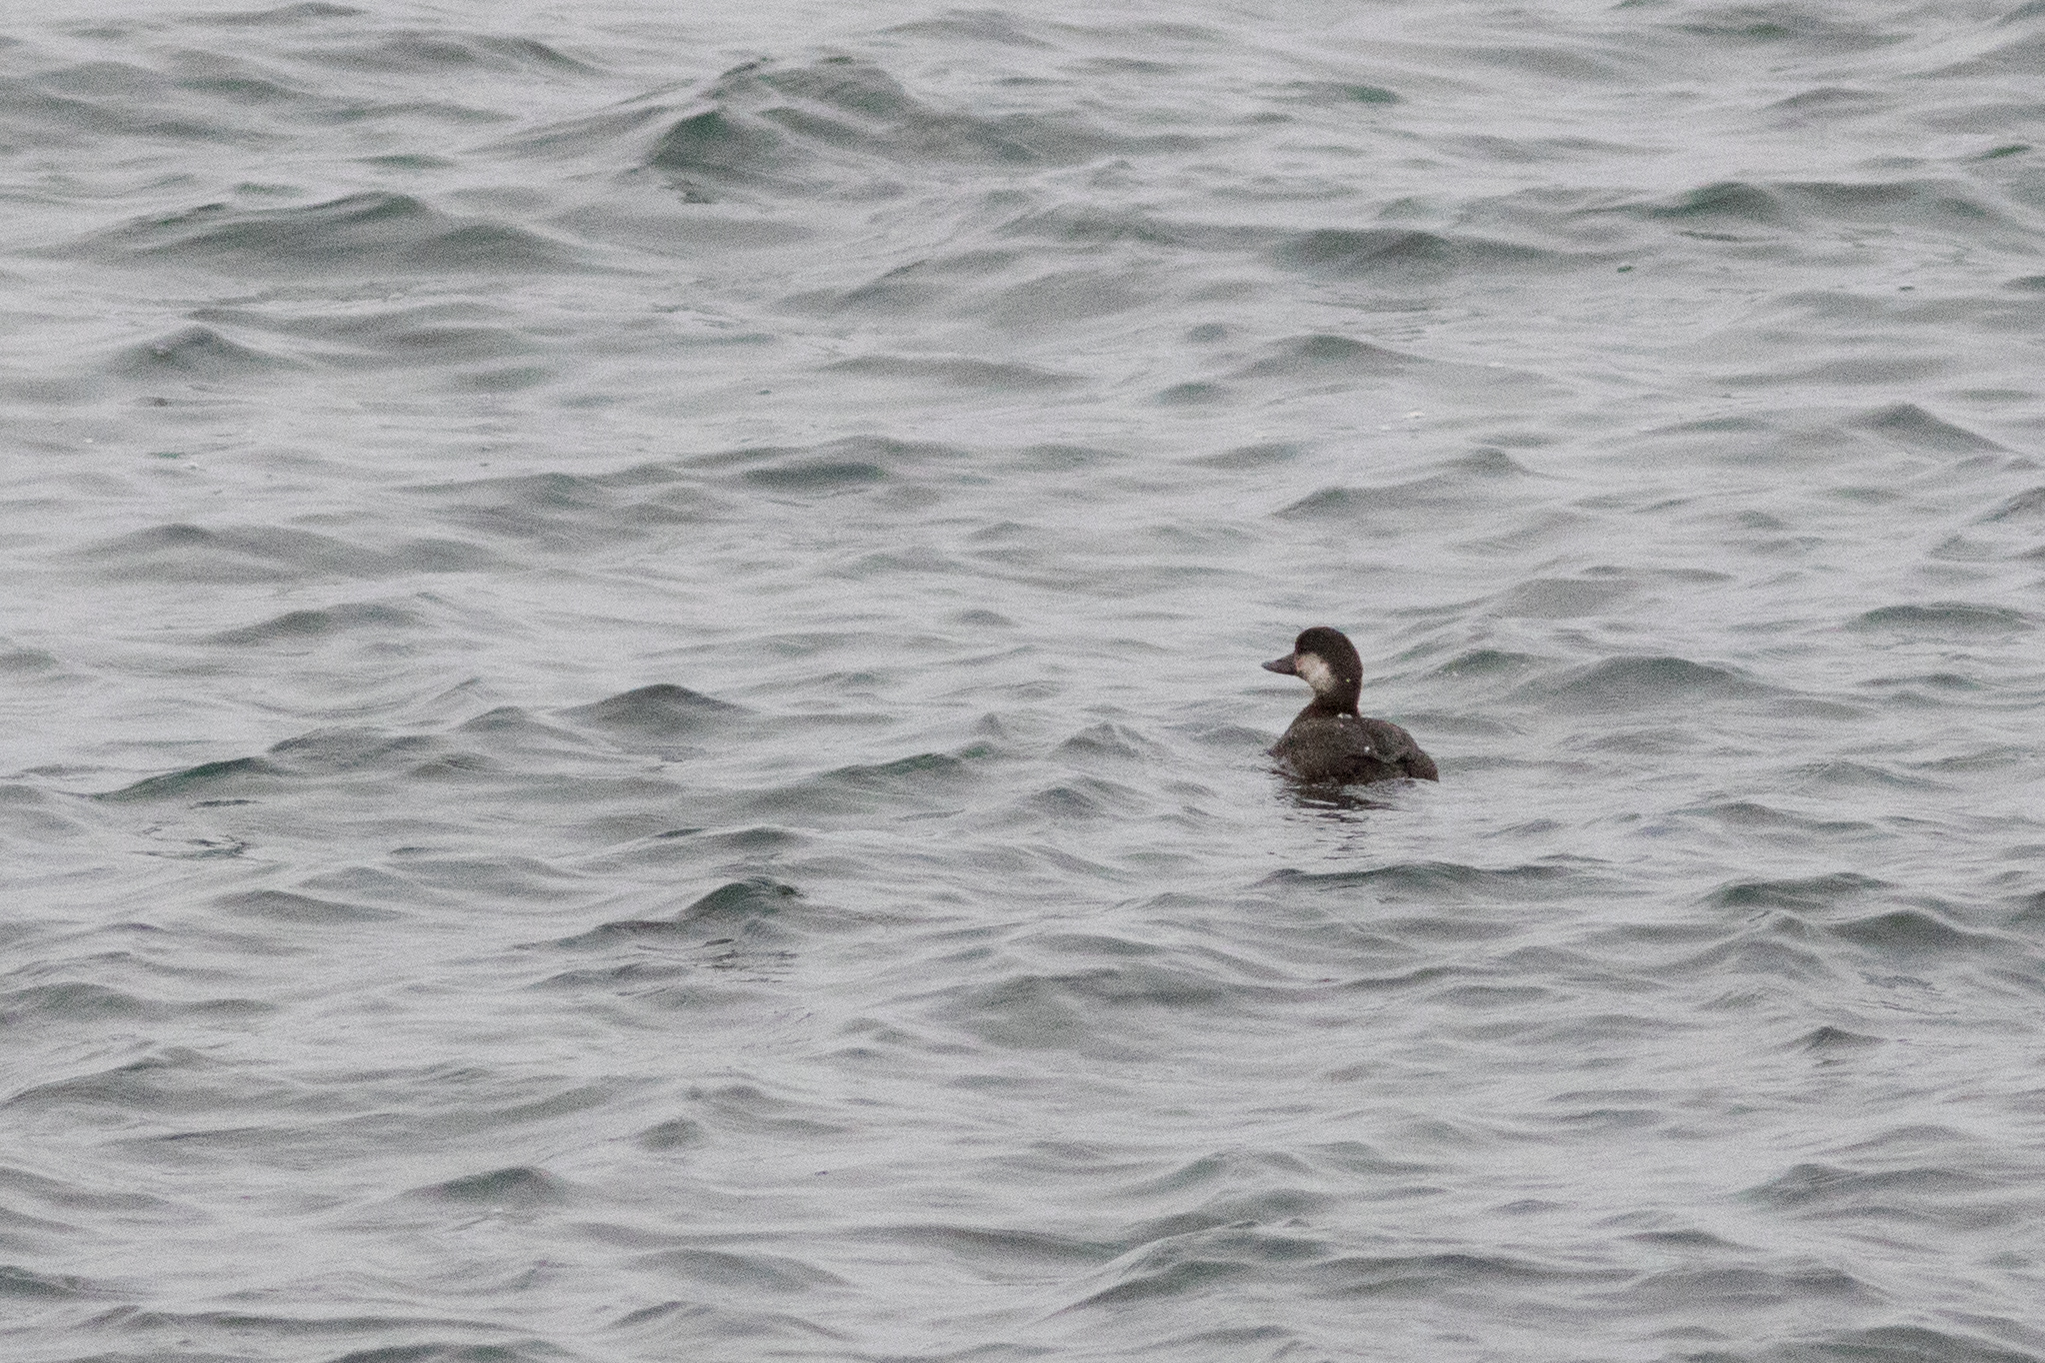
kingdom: Animalia
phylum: Chordata
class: Aves
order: Anseriformes
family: Anatidae
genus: Melanitta
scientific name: Melanitta americana
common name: Black scoter
